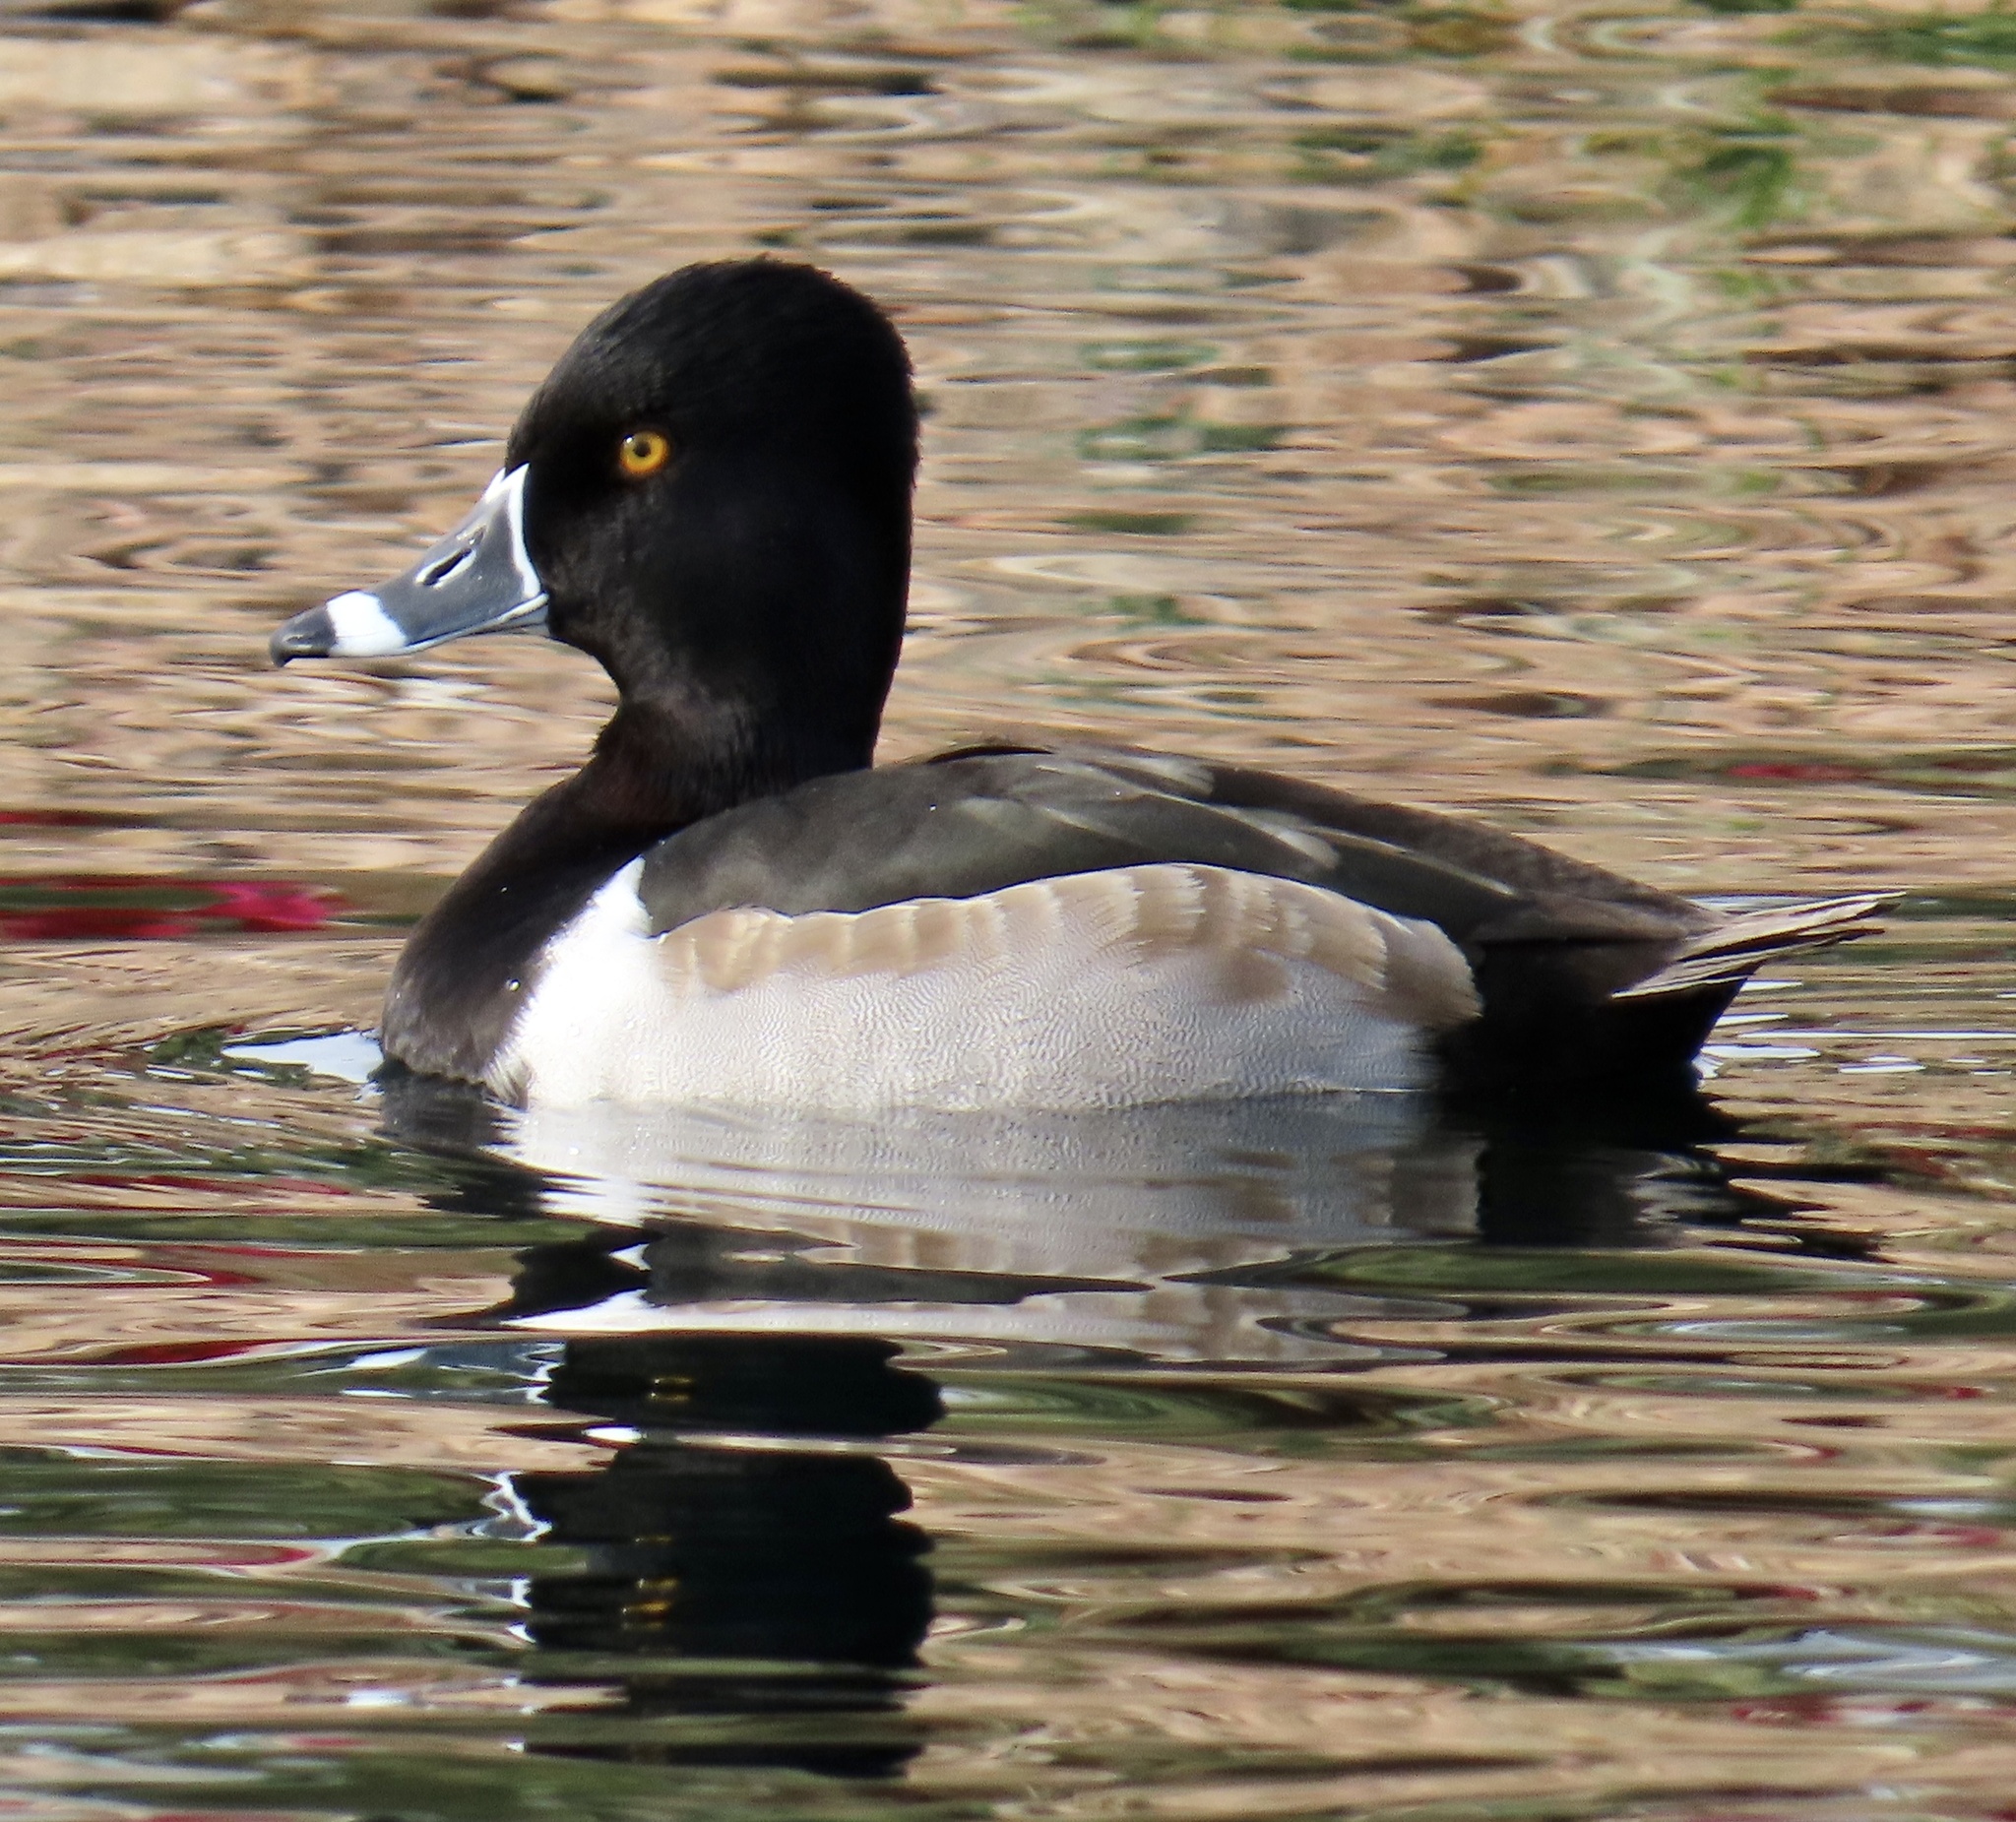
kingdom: Animalia
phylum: Chordata
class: Aves
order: Anseriformes
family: Anatidae
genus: Aythya
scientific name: Aythya collaris
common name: Ring-necked duck
